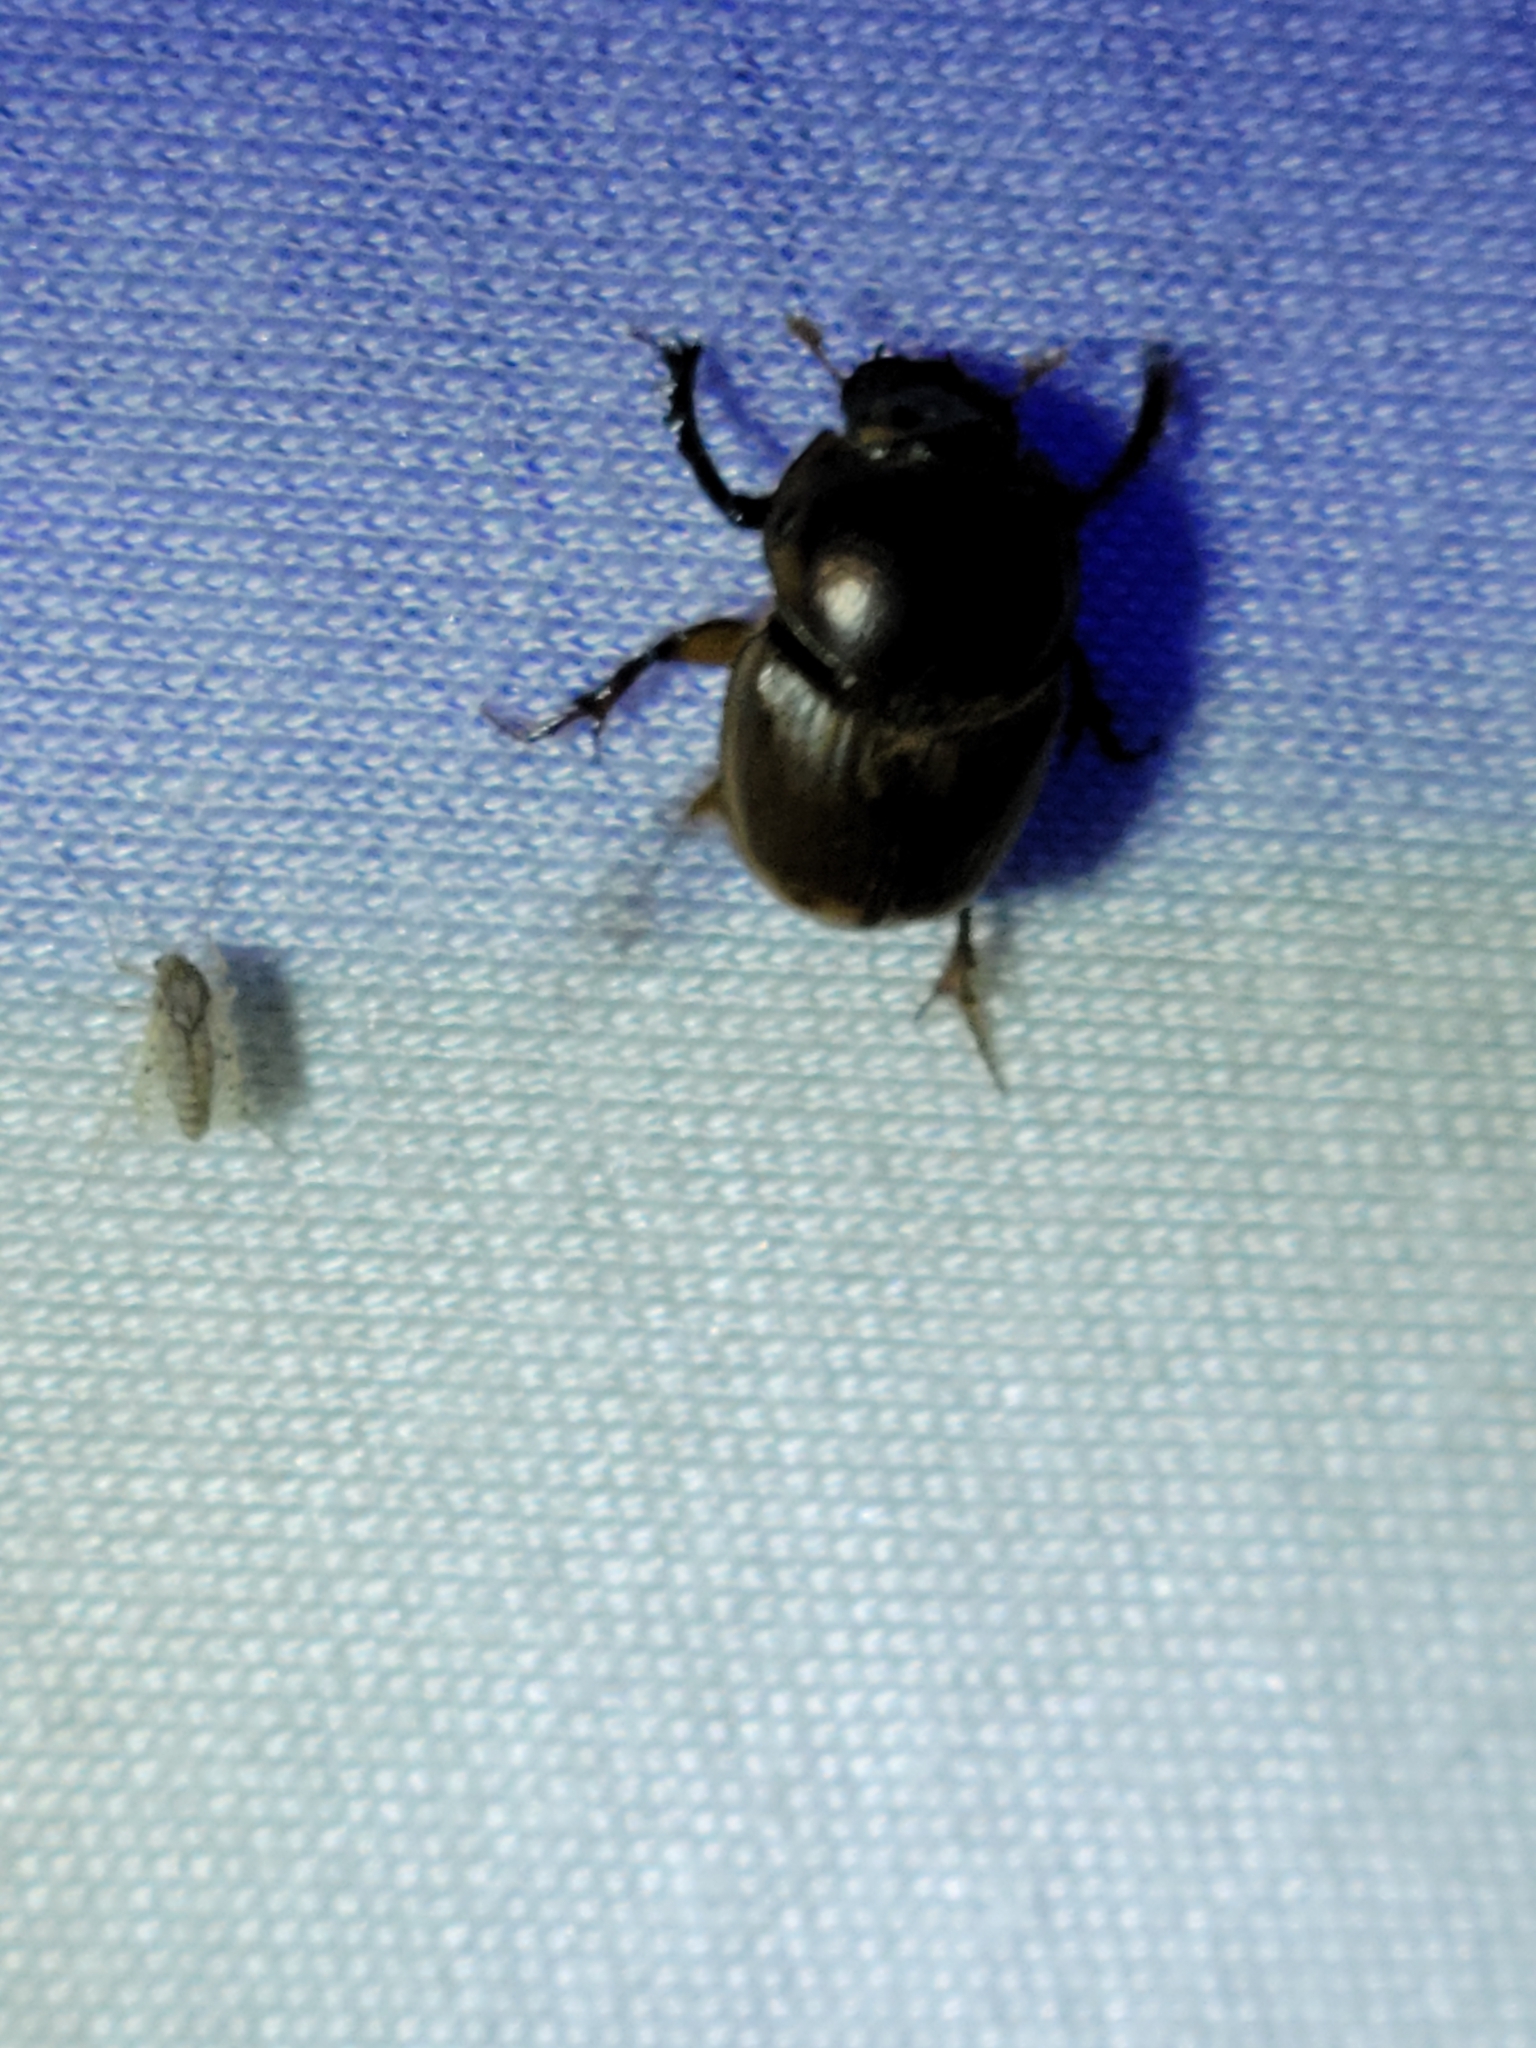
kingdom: Animalia
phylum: Arthropoda
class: Insecta
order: Coleoptera
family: Scarabaeidae
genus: Digitonthophagus
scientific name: Digitonthophagus gazella
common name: Brown dung beetle
